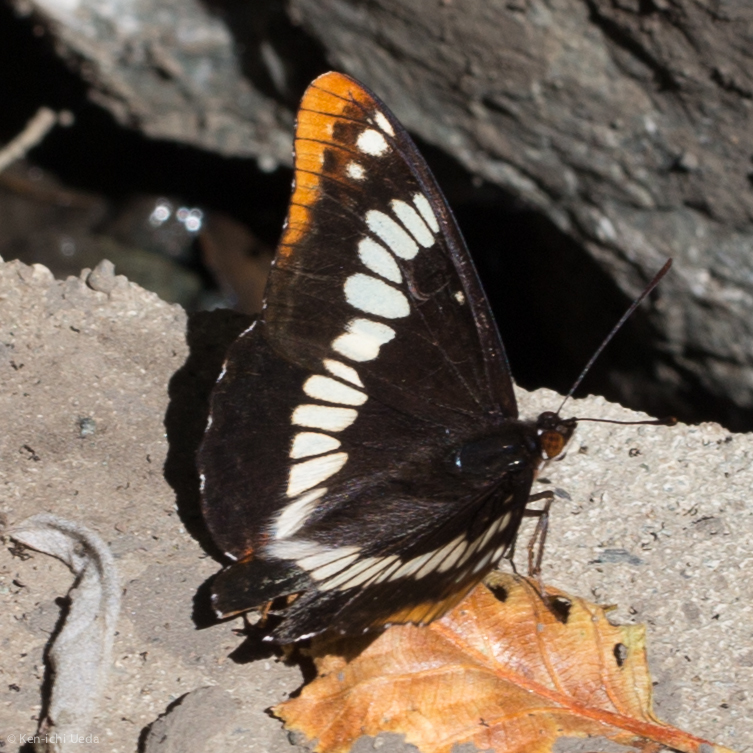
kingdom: Animalia
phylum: Arthropoda
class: Insecta
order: Lepidoptera
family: Nymphalidae
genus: Limenitis
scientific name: Limenitis lorquini
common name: Lorquin's admiral
